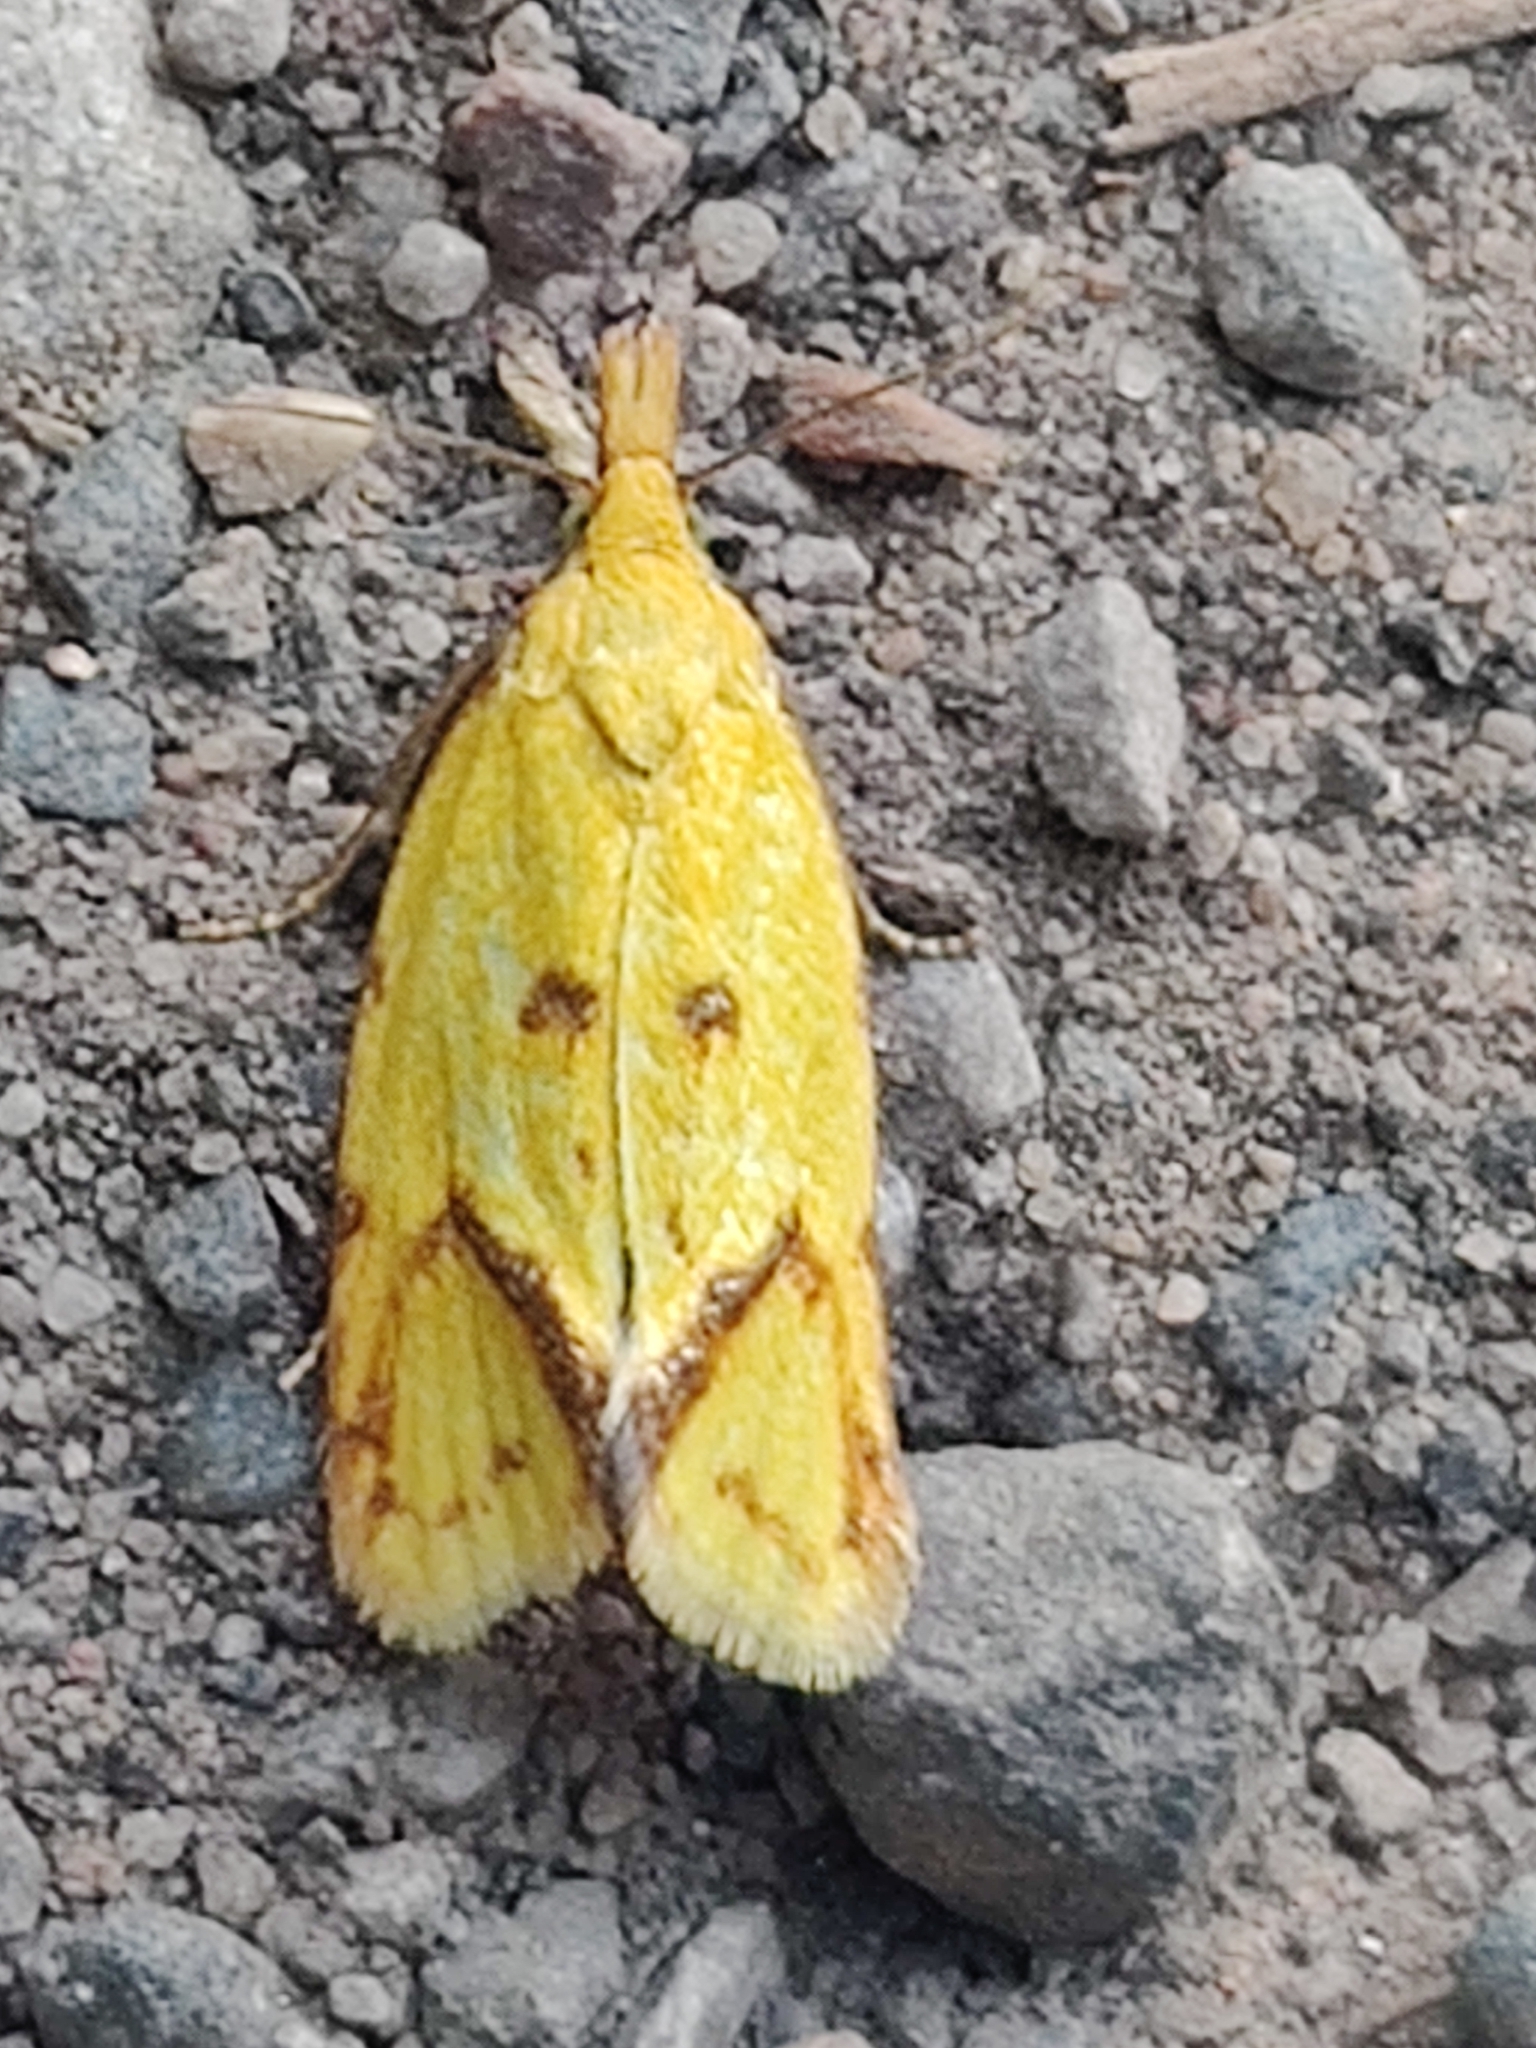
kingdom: Animalia
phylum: Arthropoda
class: Insecta
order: Lepidoptera
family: Tortricidae
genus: Agapeta
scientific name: Agapeta hamana
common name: Common yellow conch
